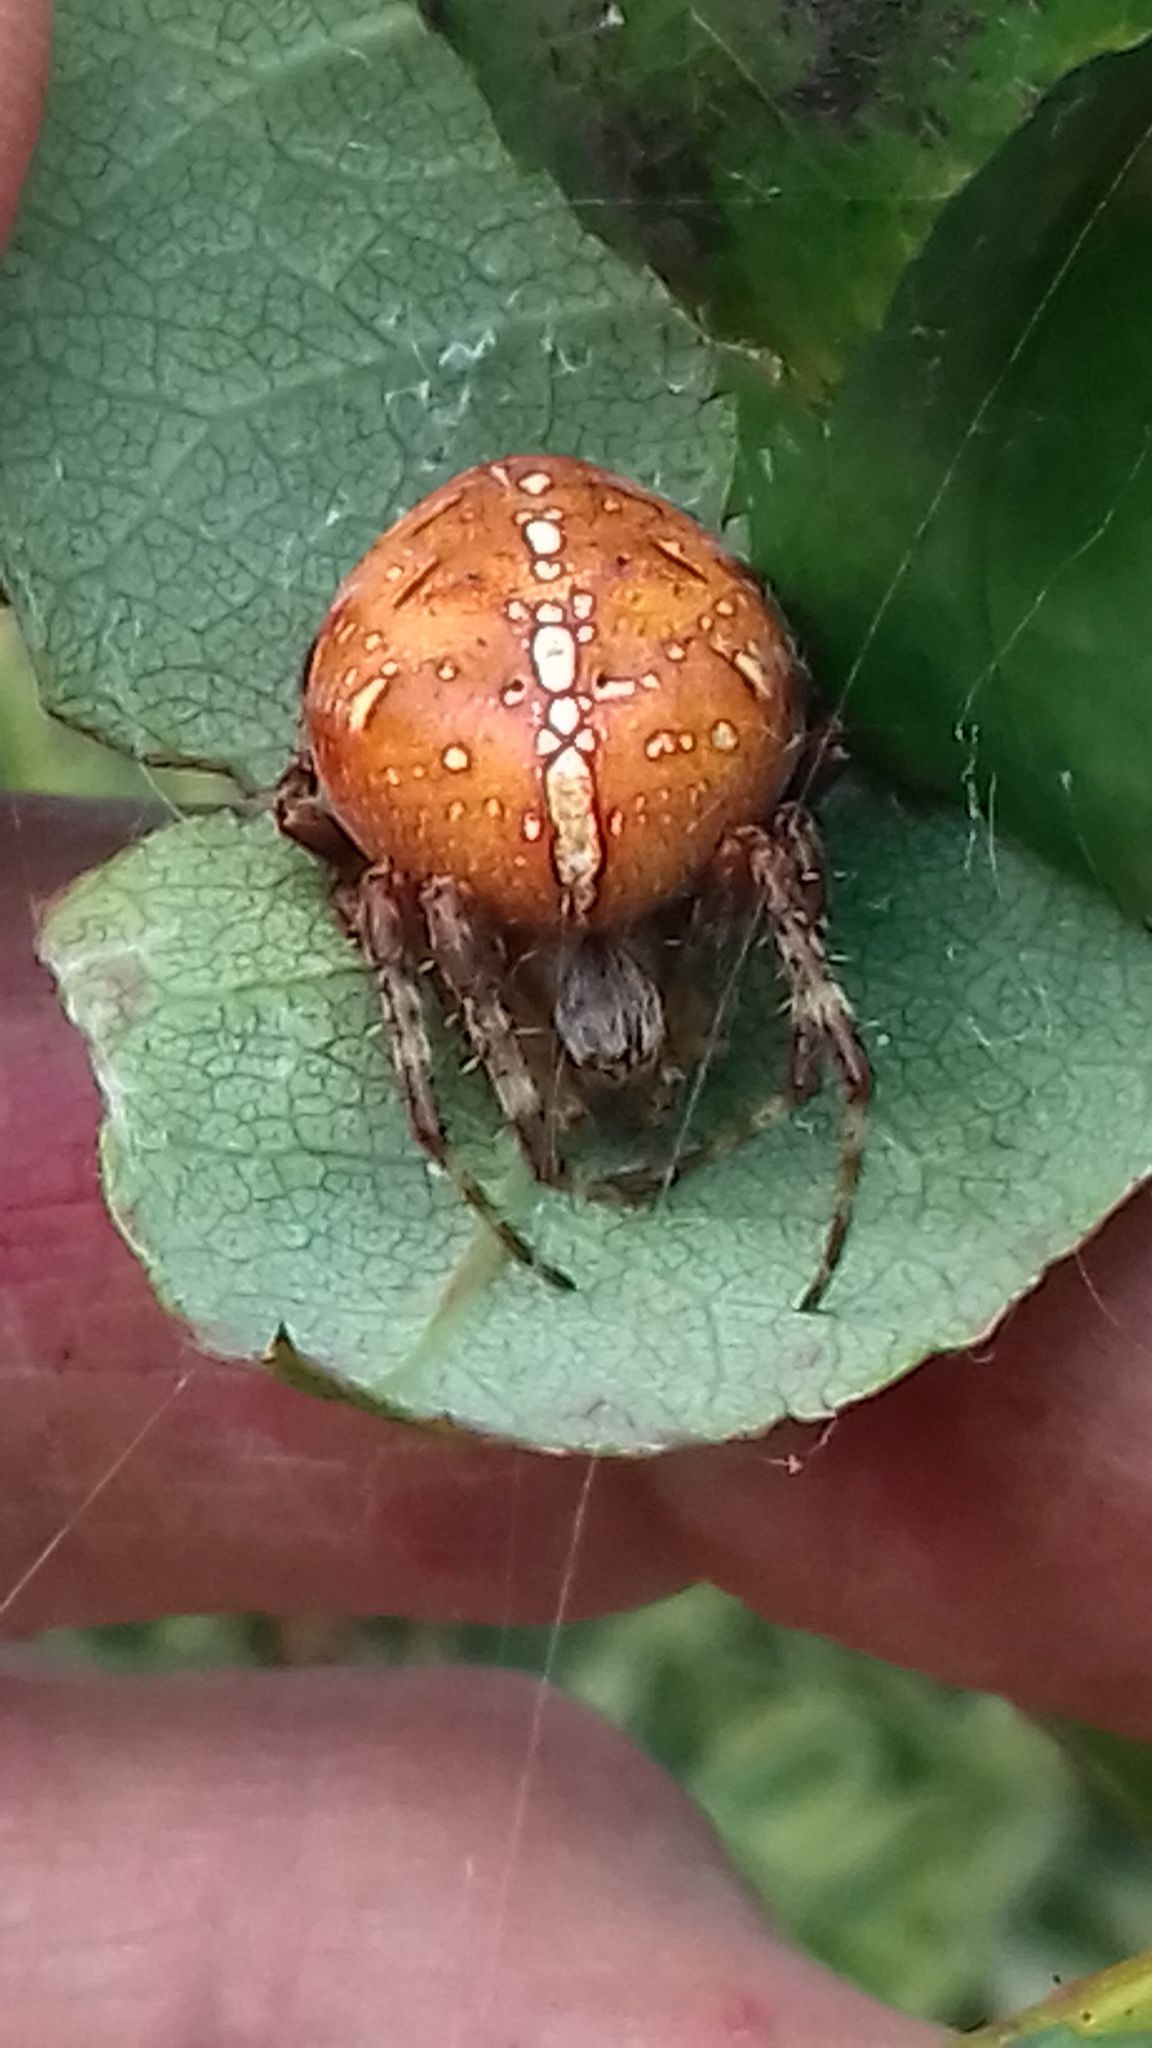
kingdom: Animalia
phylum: Arthropoda
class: Arachnida
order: Araneae
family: Araneidae
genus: Araneus
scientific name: Araneus diadematus
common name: Cross orbweaver
